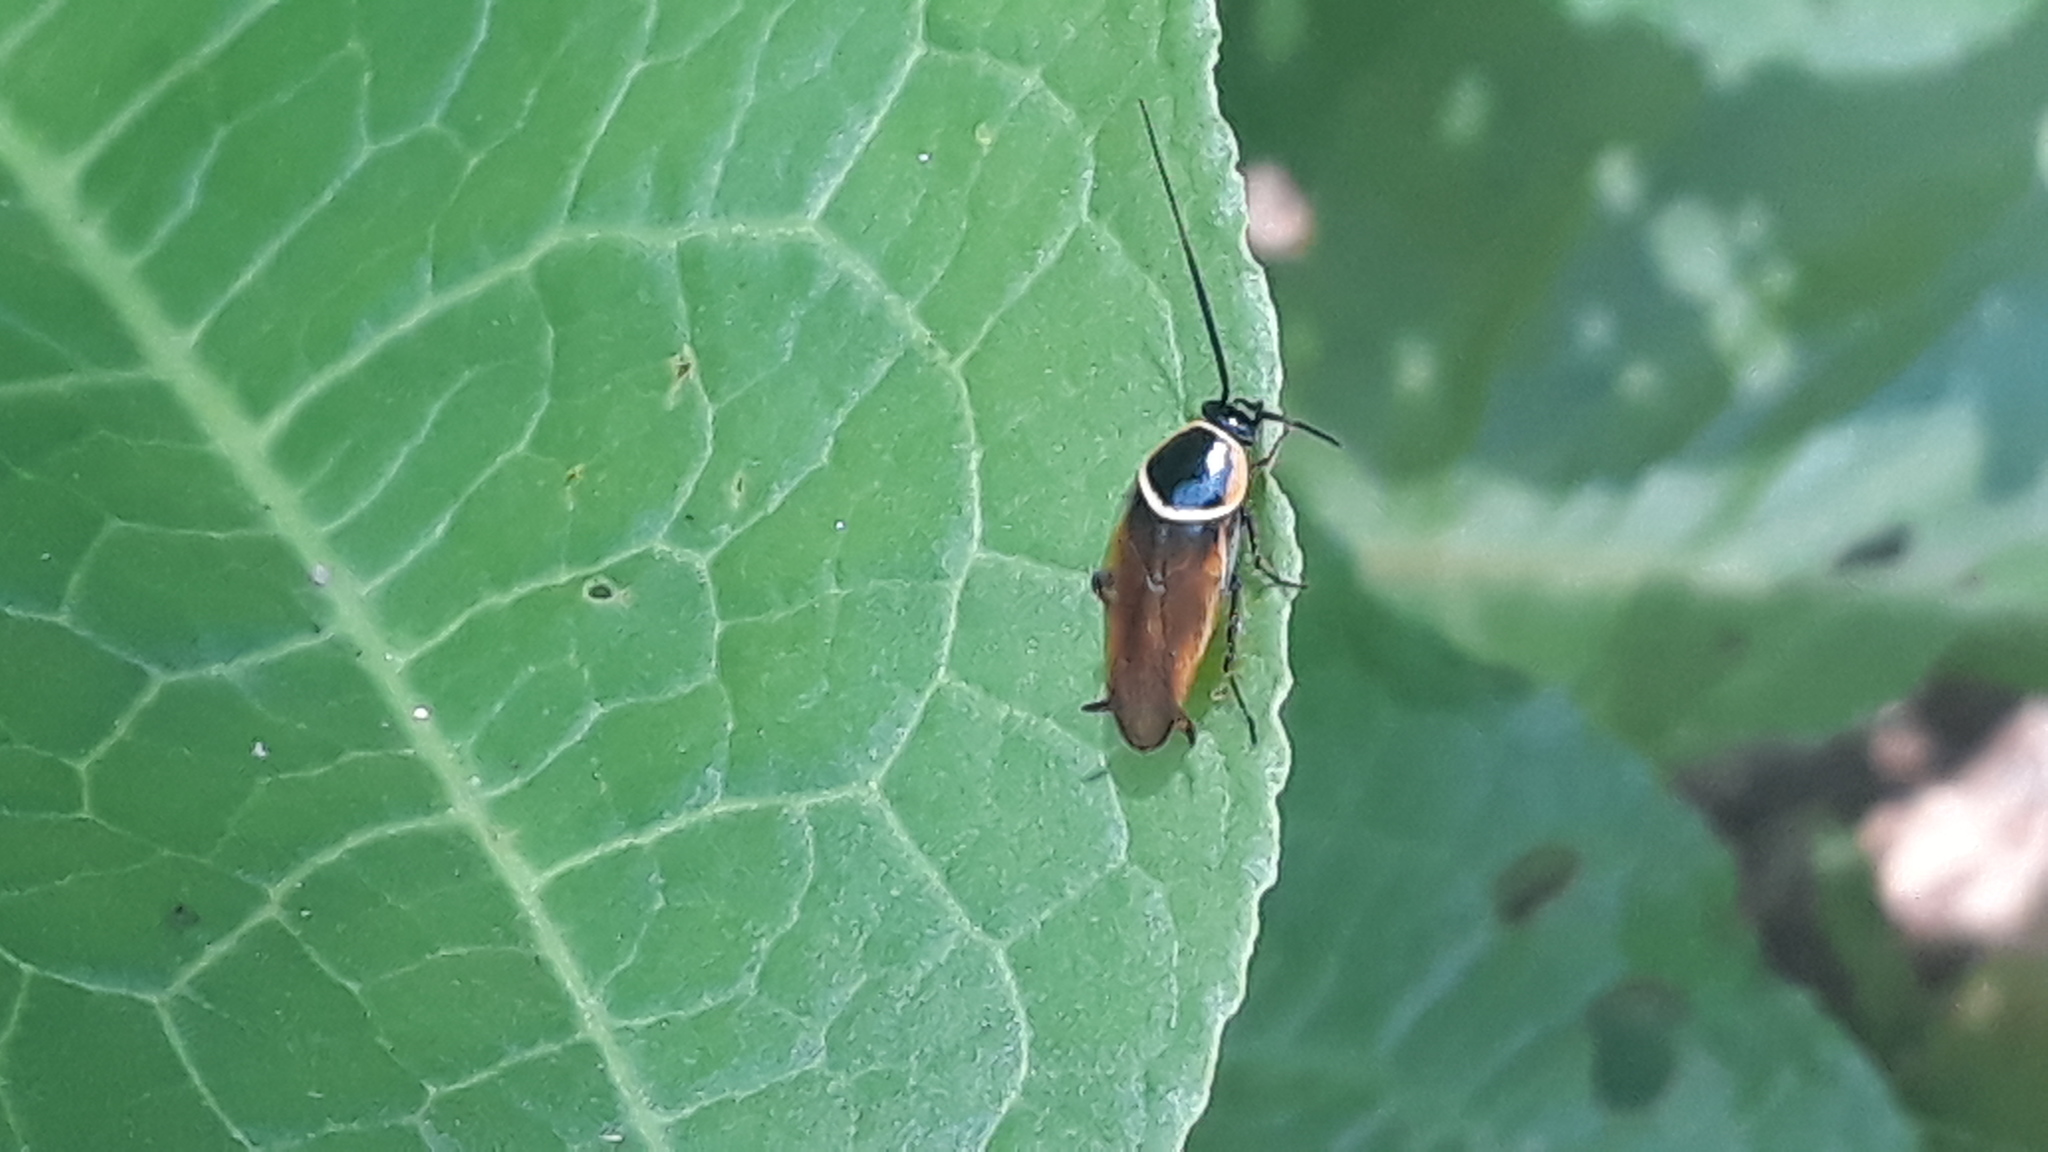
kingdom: Animalia
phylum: Arthropoda
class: Insecta
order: Blattodea
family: Ectobiidae
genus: Pseudomops
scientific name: Pseudomops neglectus
